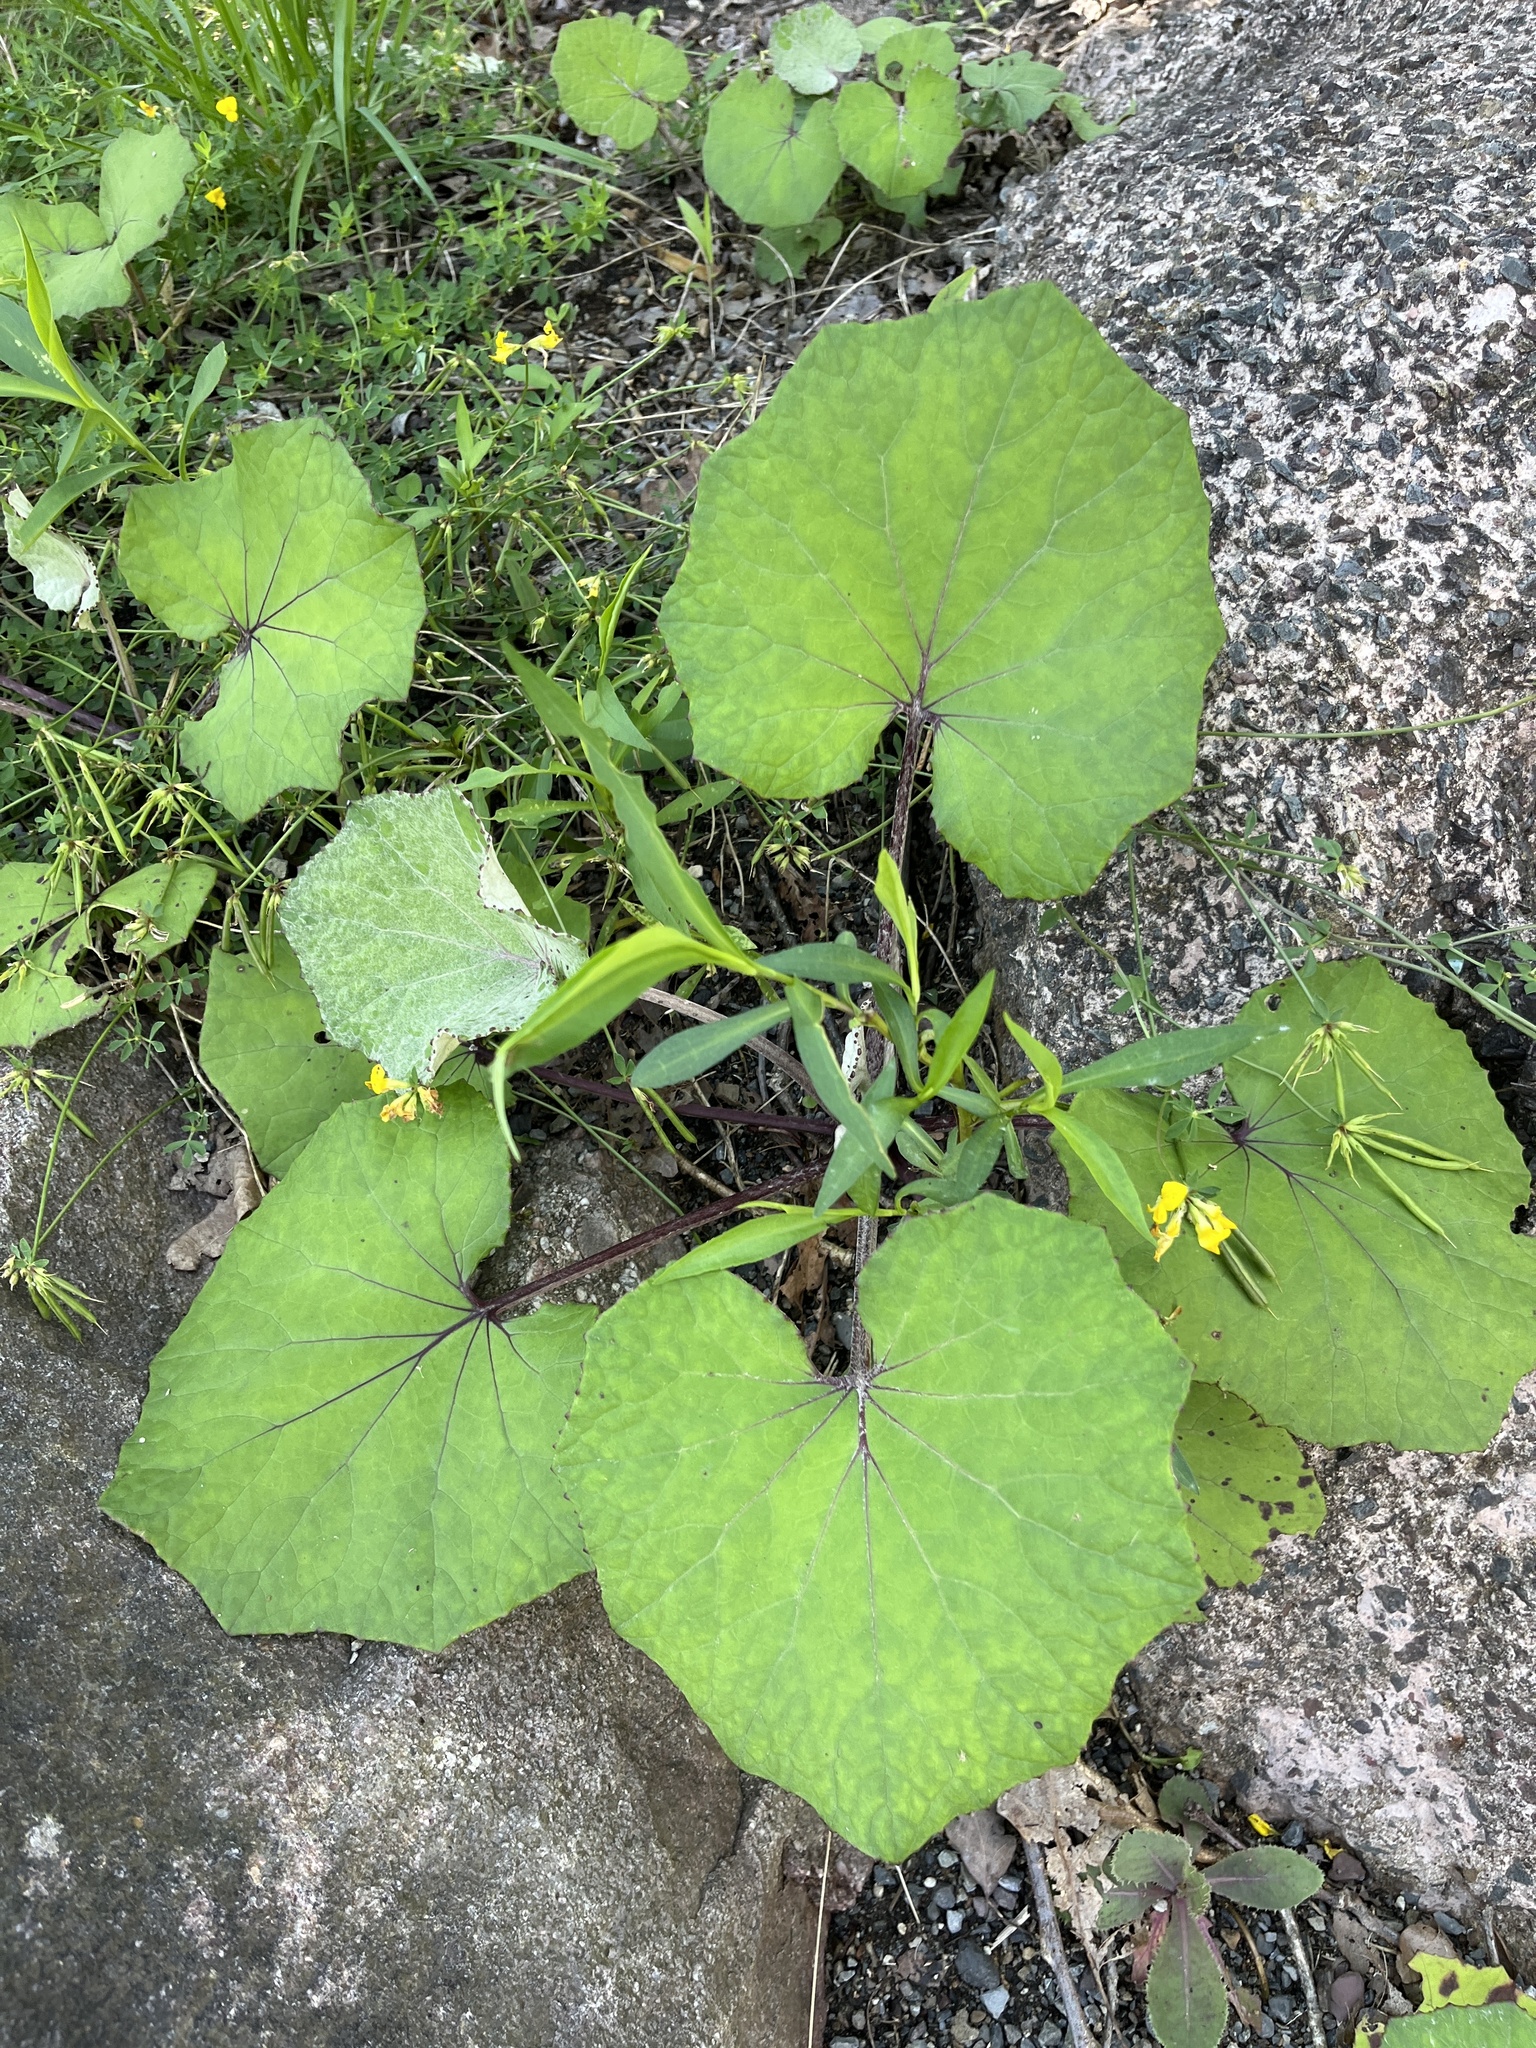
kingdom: Plantae
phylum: Tracheophyta
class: Magnoliopsida
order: Asterales
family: Asteraceae
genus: Tussilago
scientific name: Tussilago farfara
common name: Coltsfoot
